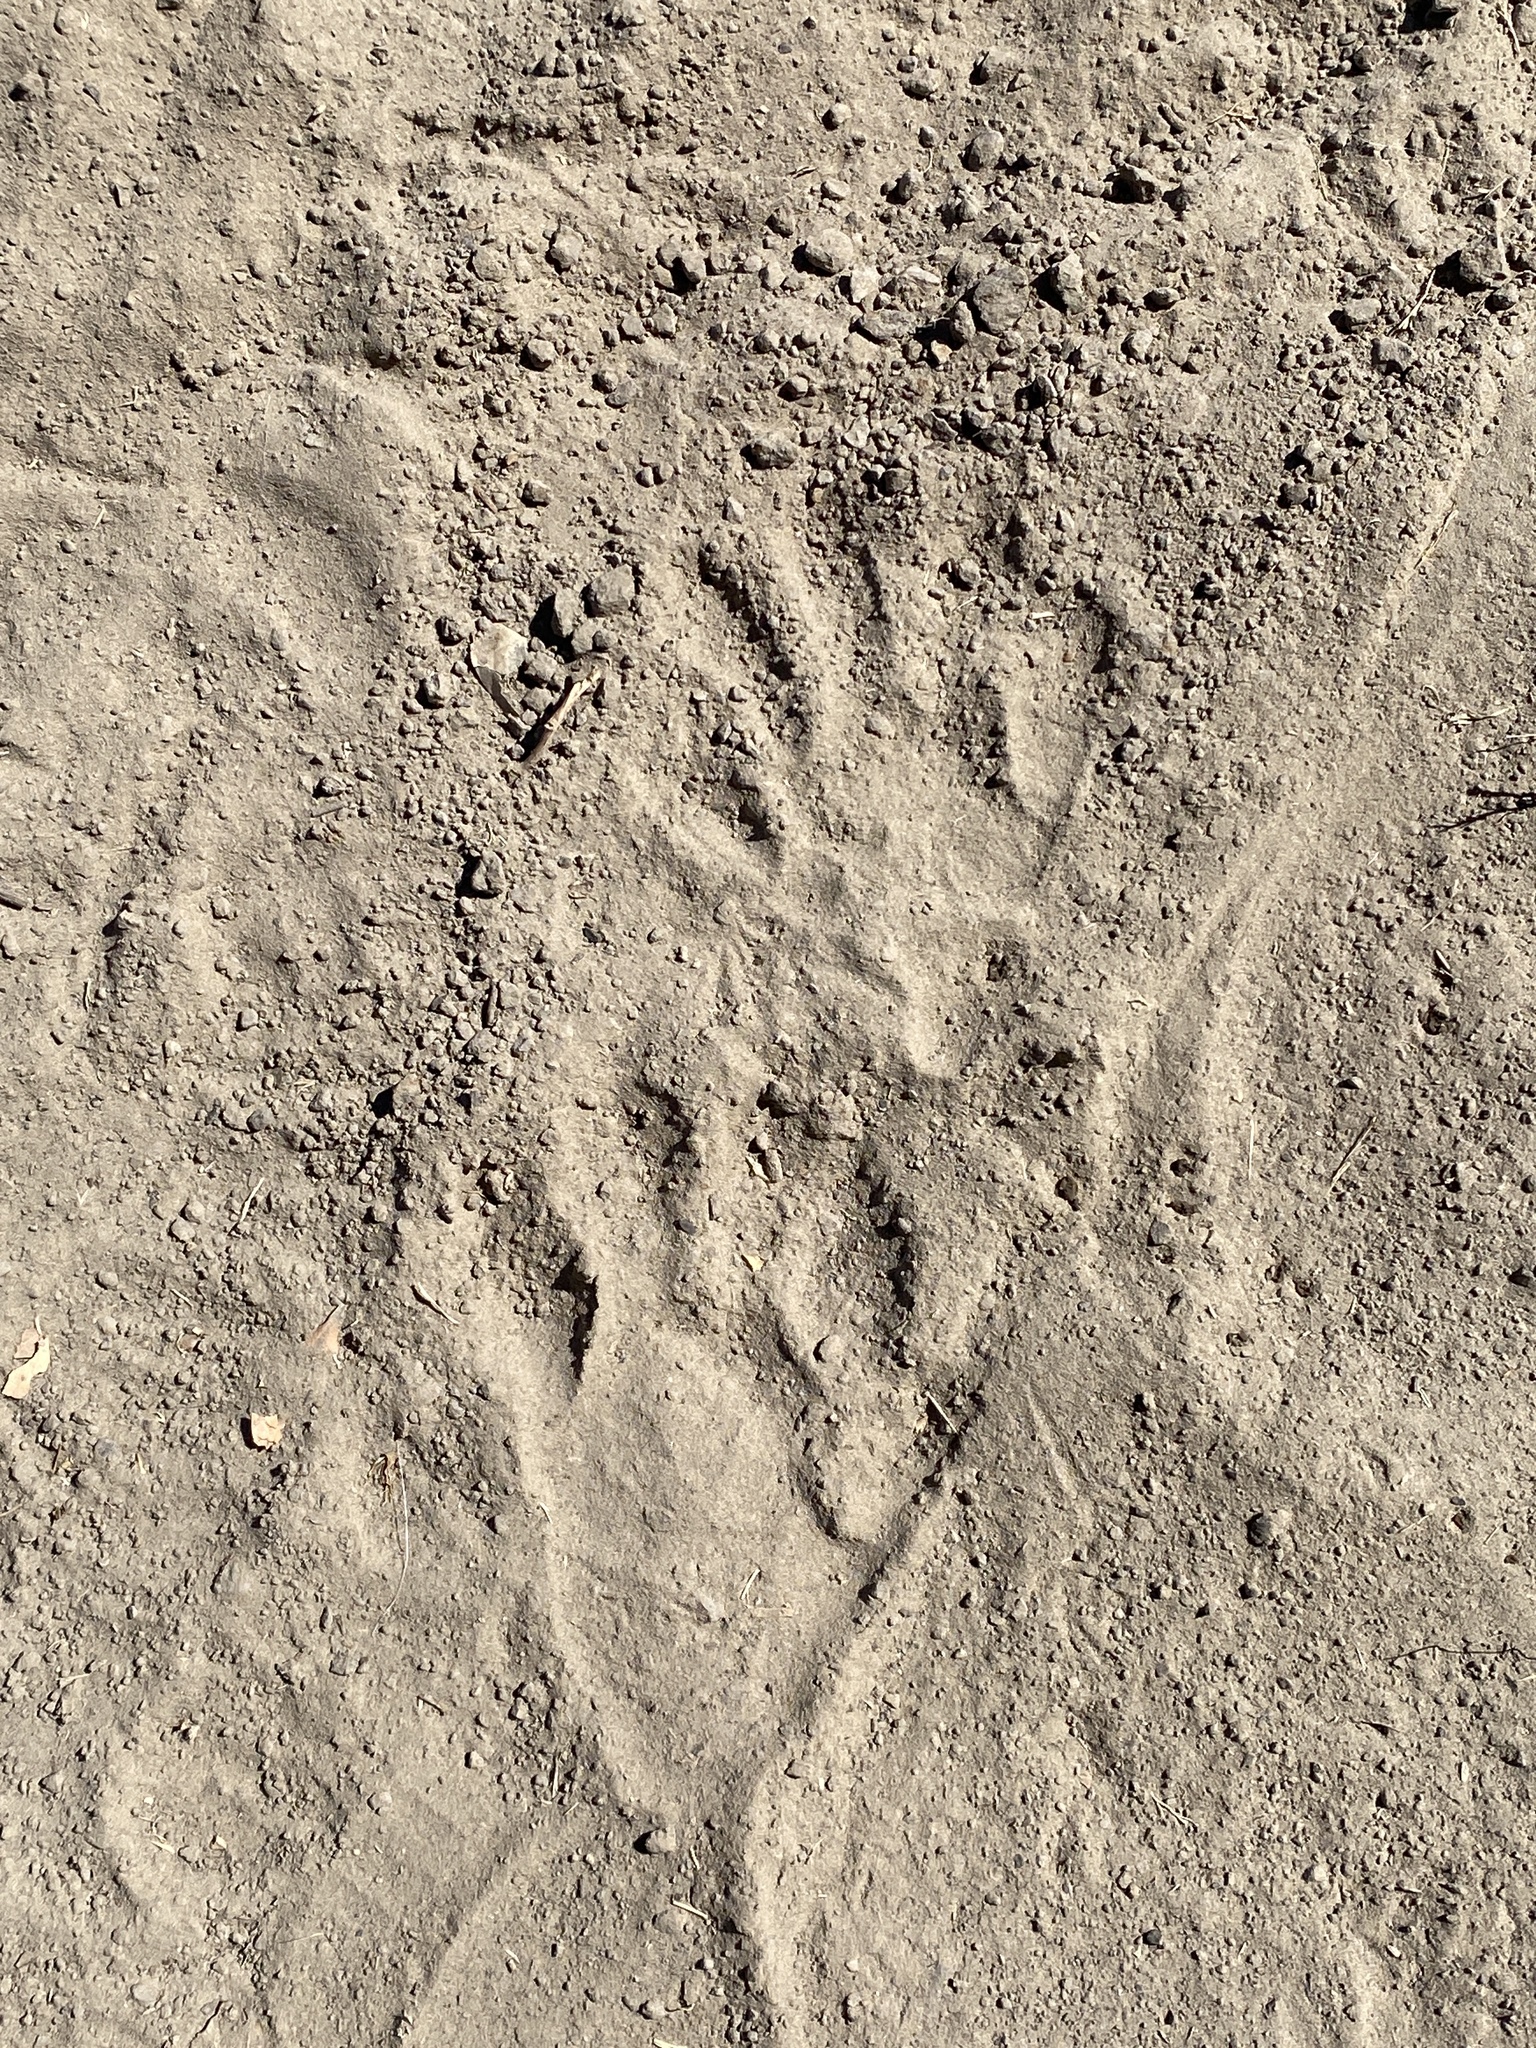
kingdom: Animalia
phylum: Chordata
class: Mammalia
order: Carnivora
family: Procyonidae
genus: Procyon
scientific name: Procyon lotor
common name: Raccoon
